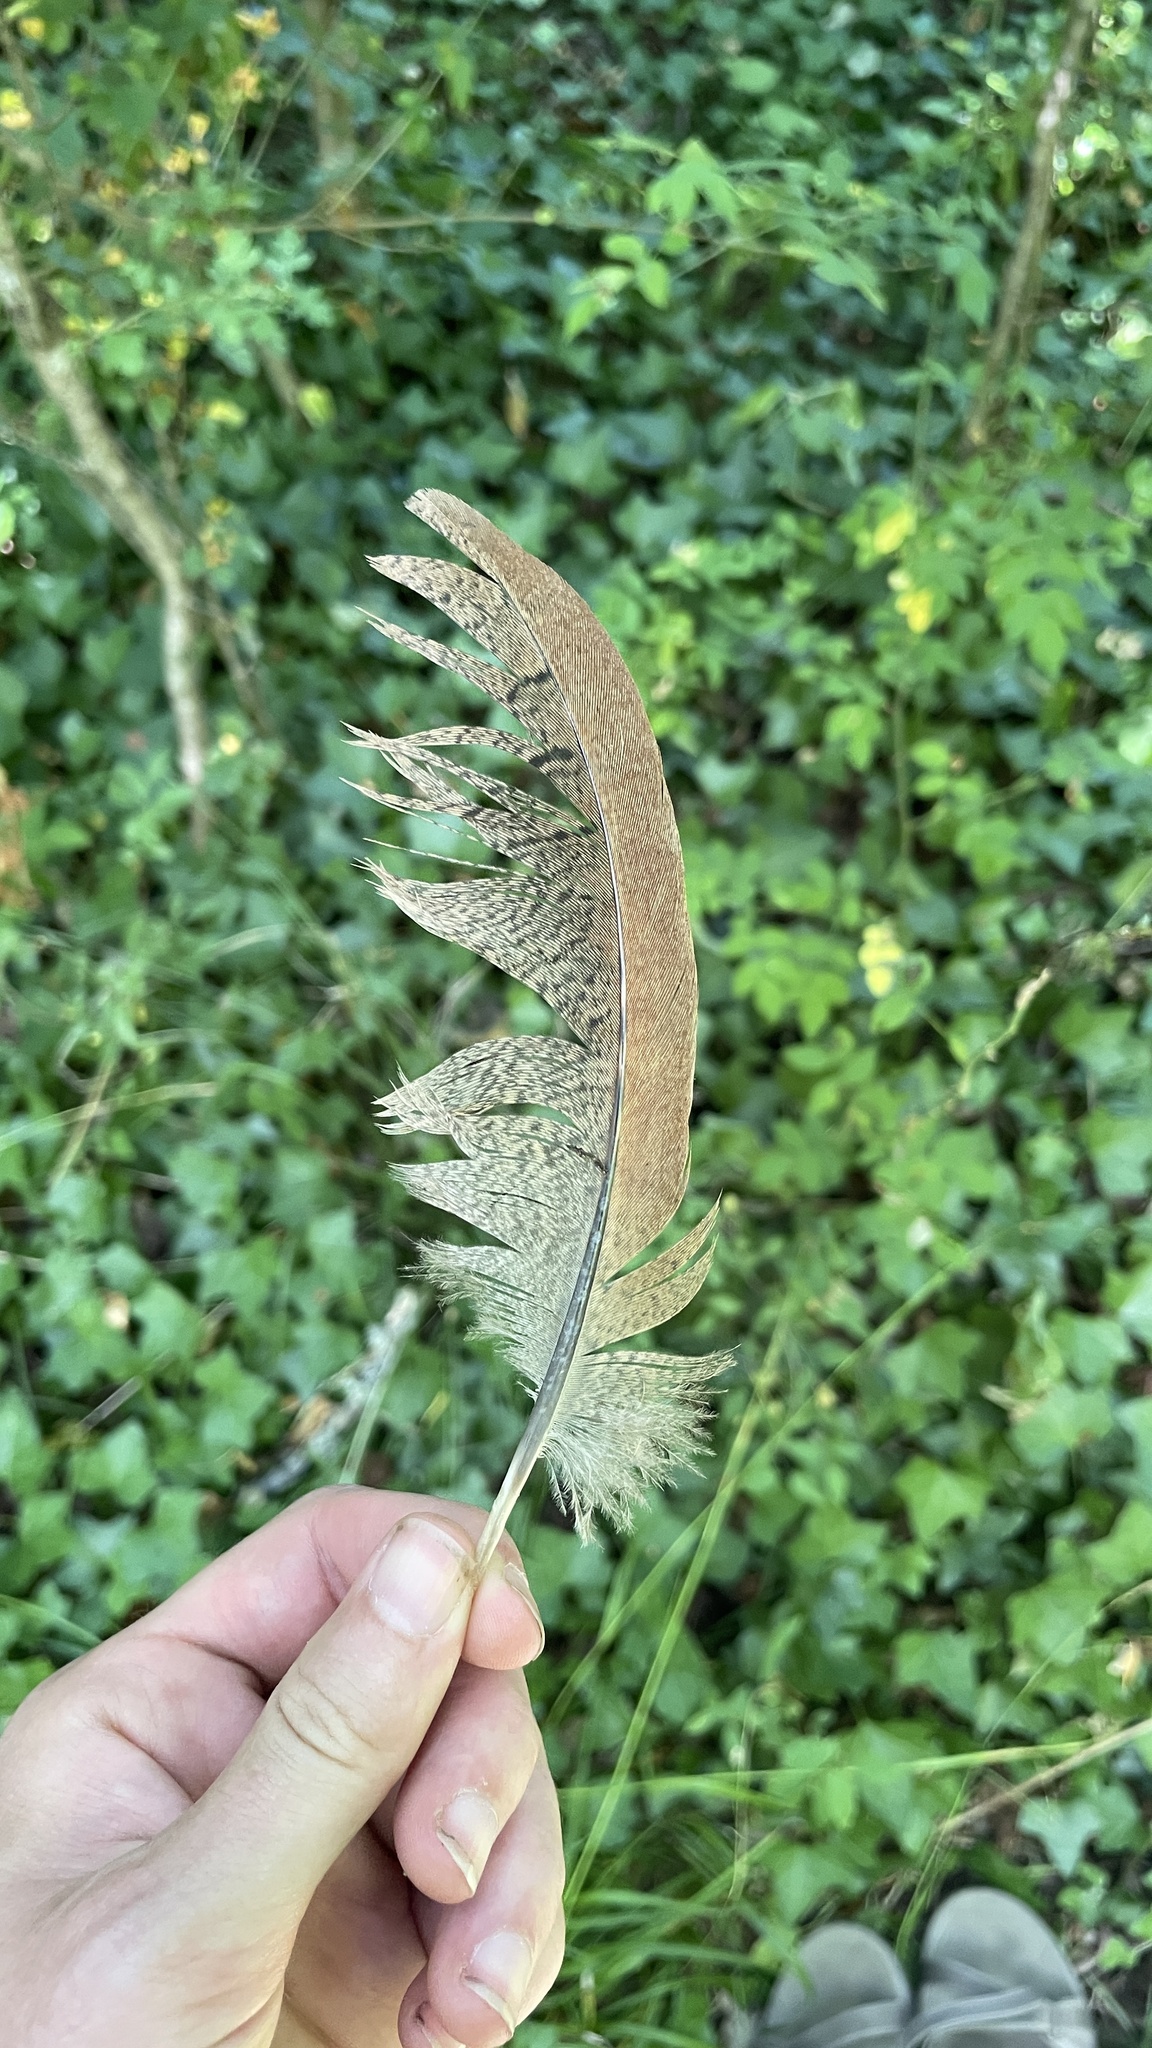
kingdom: Animalia
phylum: Chordata
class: Aves
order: Galliformes
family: Phasianidae
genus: Phasianus
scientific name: Phasianus colchicus
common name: Common pheasant
